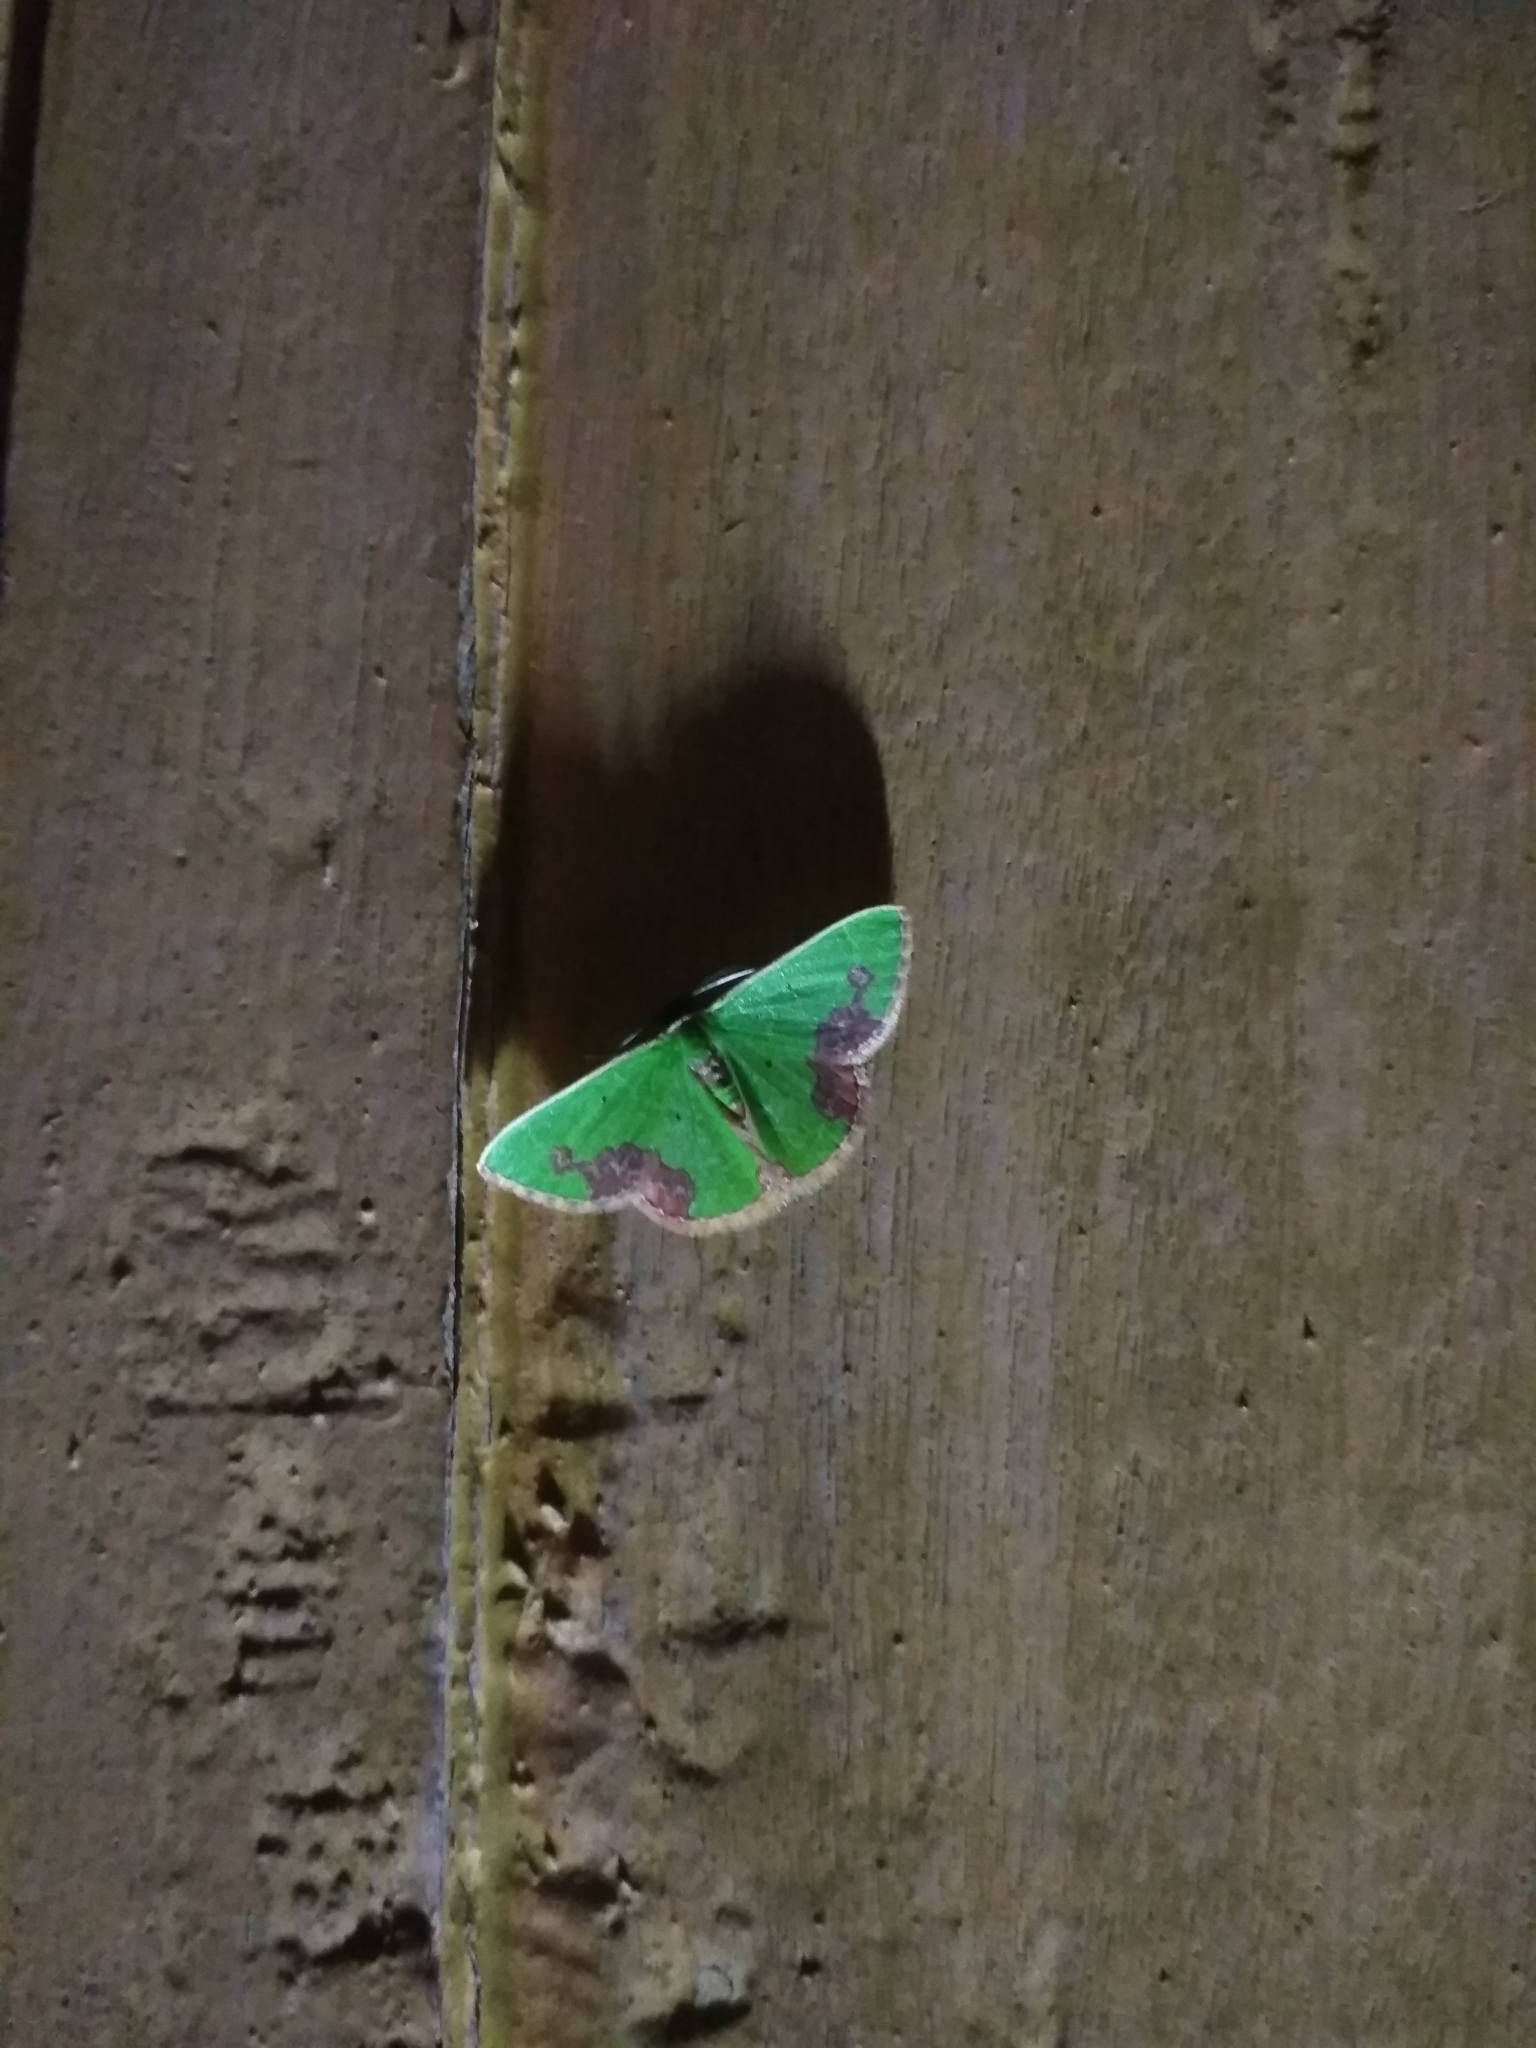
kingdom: Animalia
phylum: Arthropoda
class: Insecta
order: Lepidoptera
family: Geometridae
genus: Comibaena
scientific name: Comibaena attenuata
